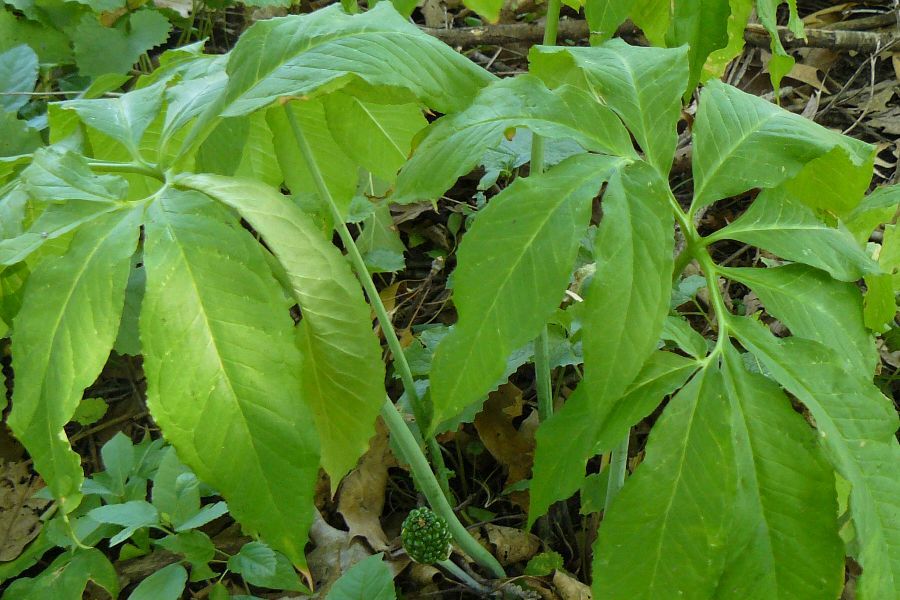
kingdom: Plantae
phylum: Tracheophyta
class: Liliopsida
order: Alismatales
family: Araceae
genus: Arisaema
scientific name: Arisaema dracontium
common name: Dragon-arum
